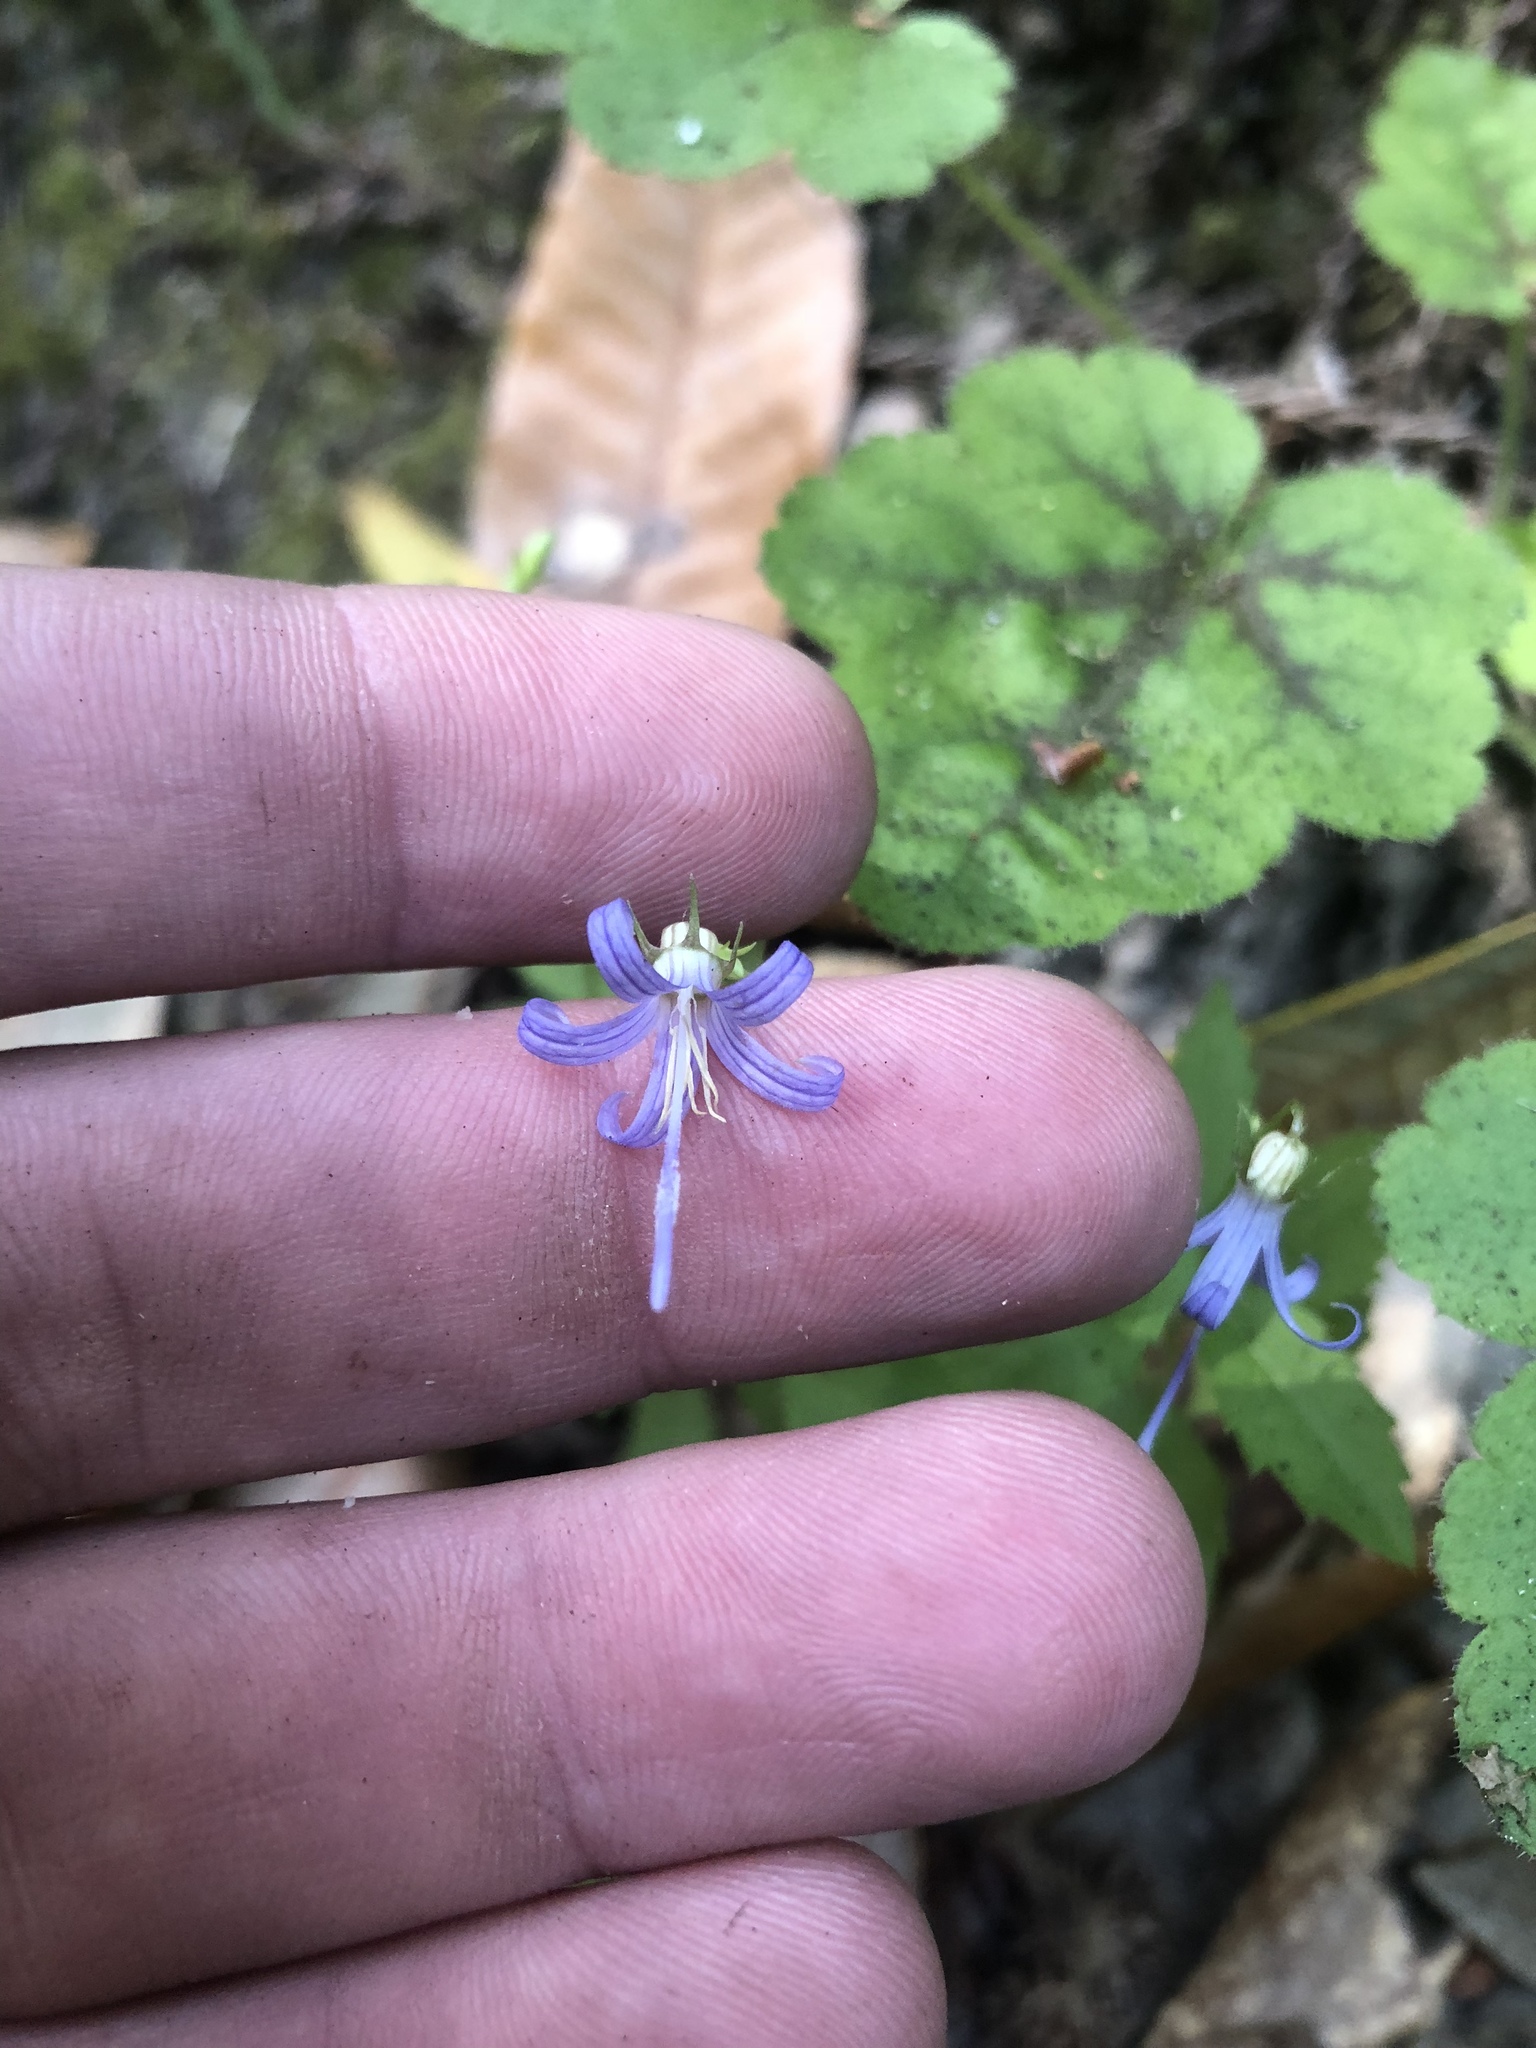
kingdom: Plantae
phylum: Tracheophyta
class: Magnoliopsida
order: Asterales
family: Campanulaceae
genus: Smithiastrum
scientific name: Smithiastrum prenanthoides
